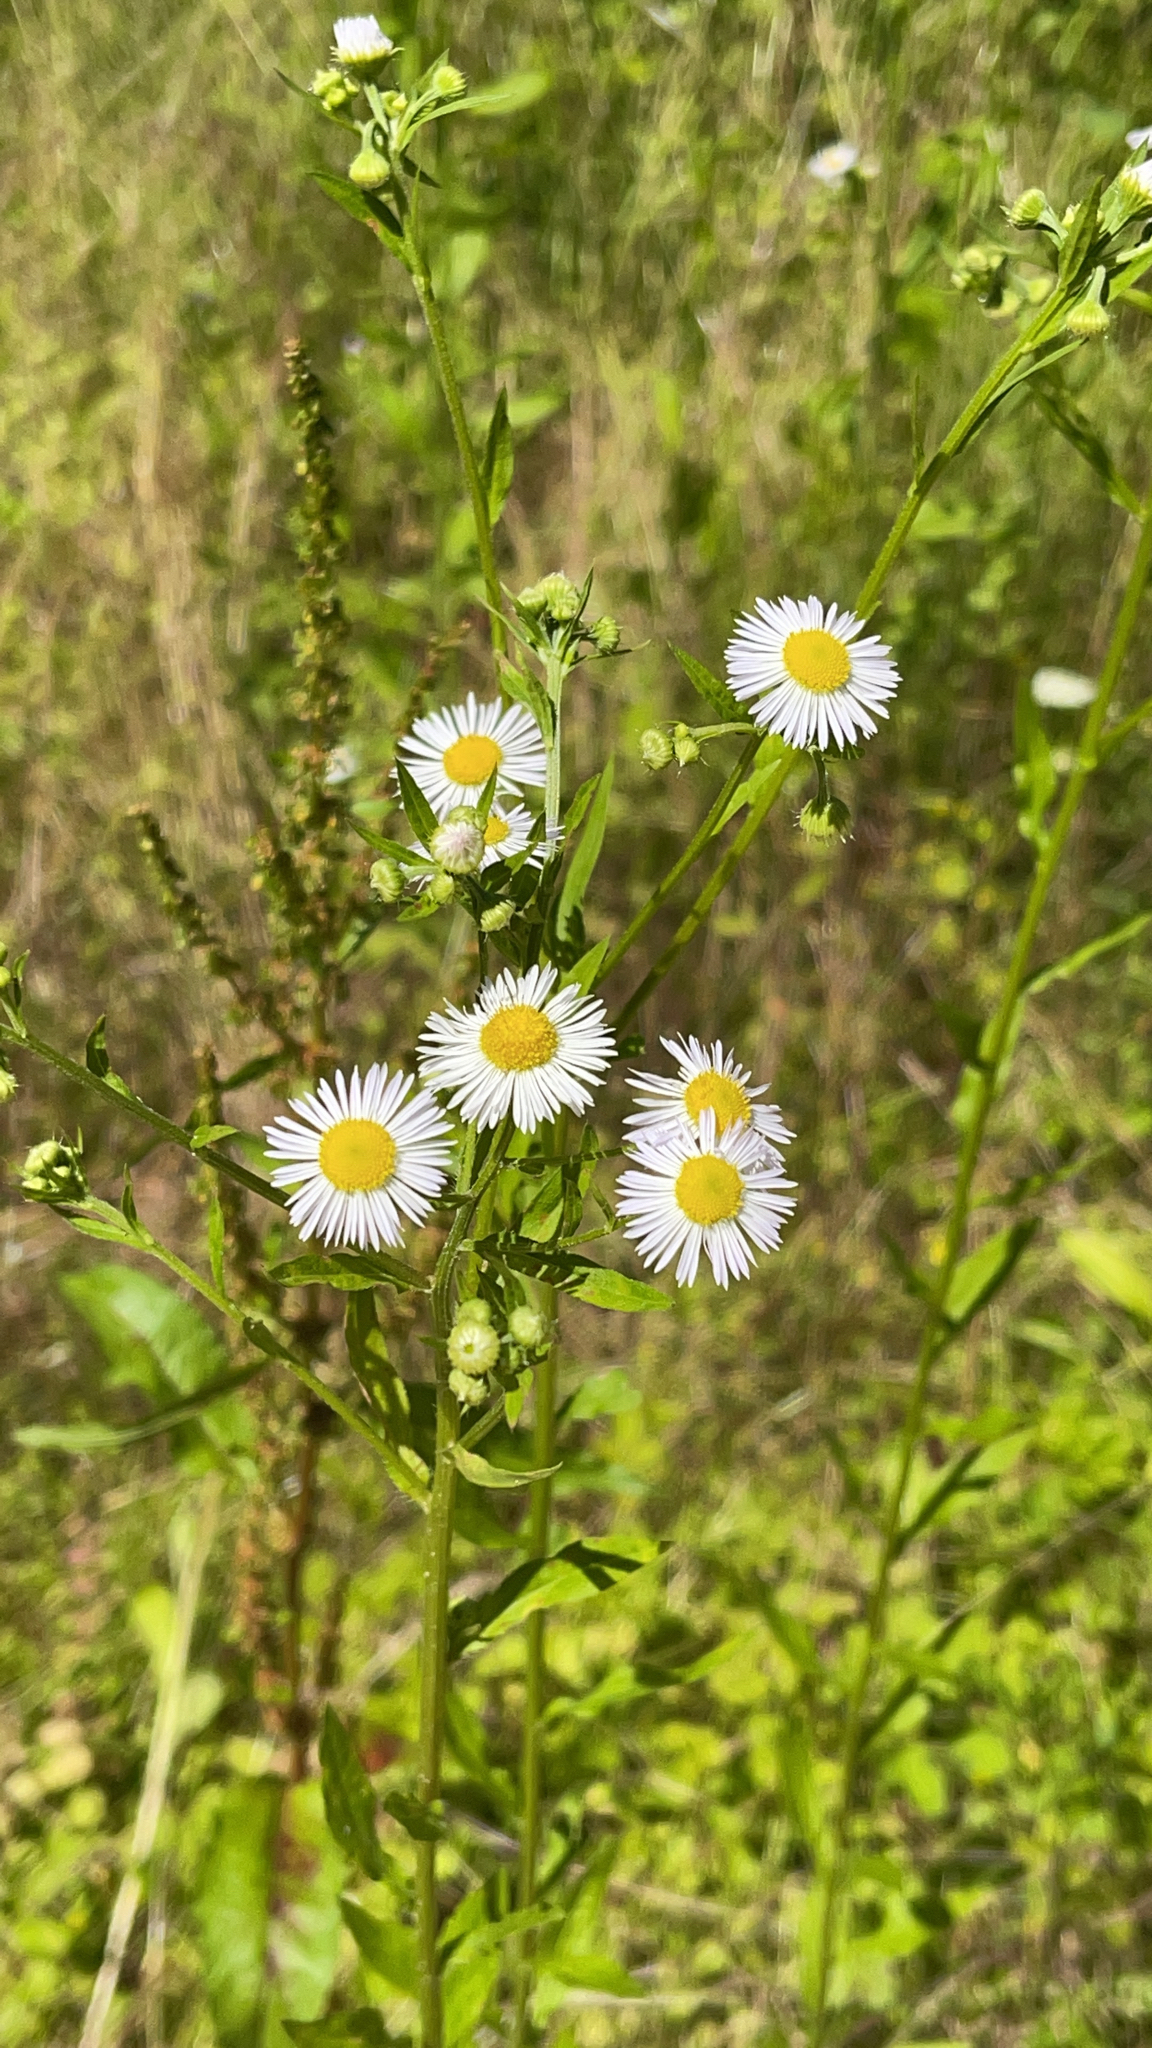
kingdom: Plantae
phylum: Tracheophyta
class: Magnoliopsida
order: Asterales
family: Asteraceae
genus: Erigeron
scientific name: Erigeron annuus
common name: Tall fleabane
